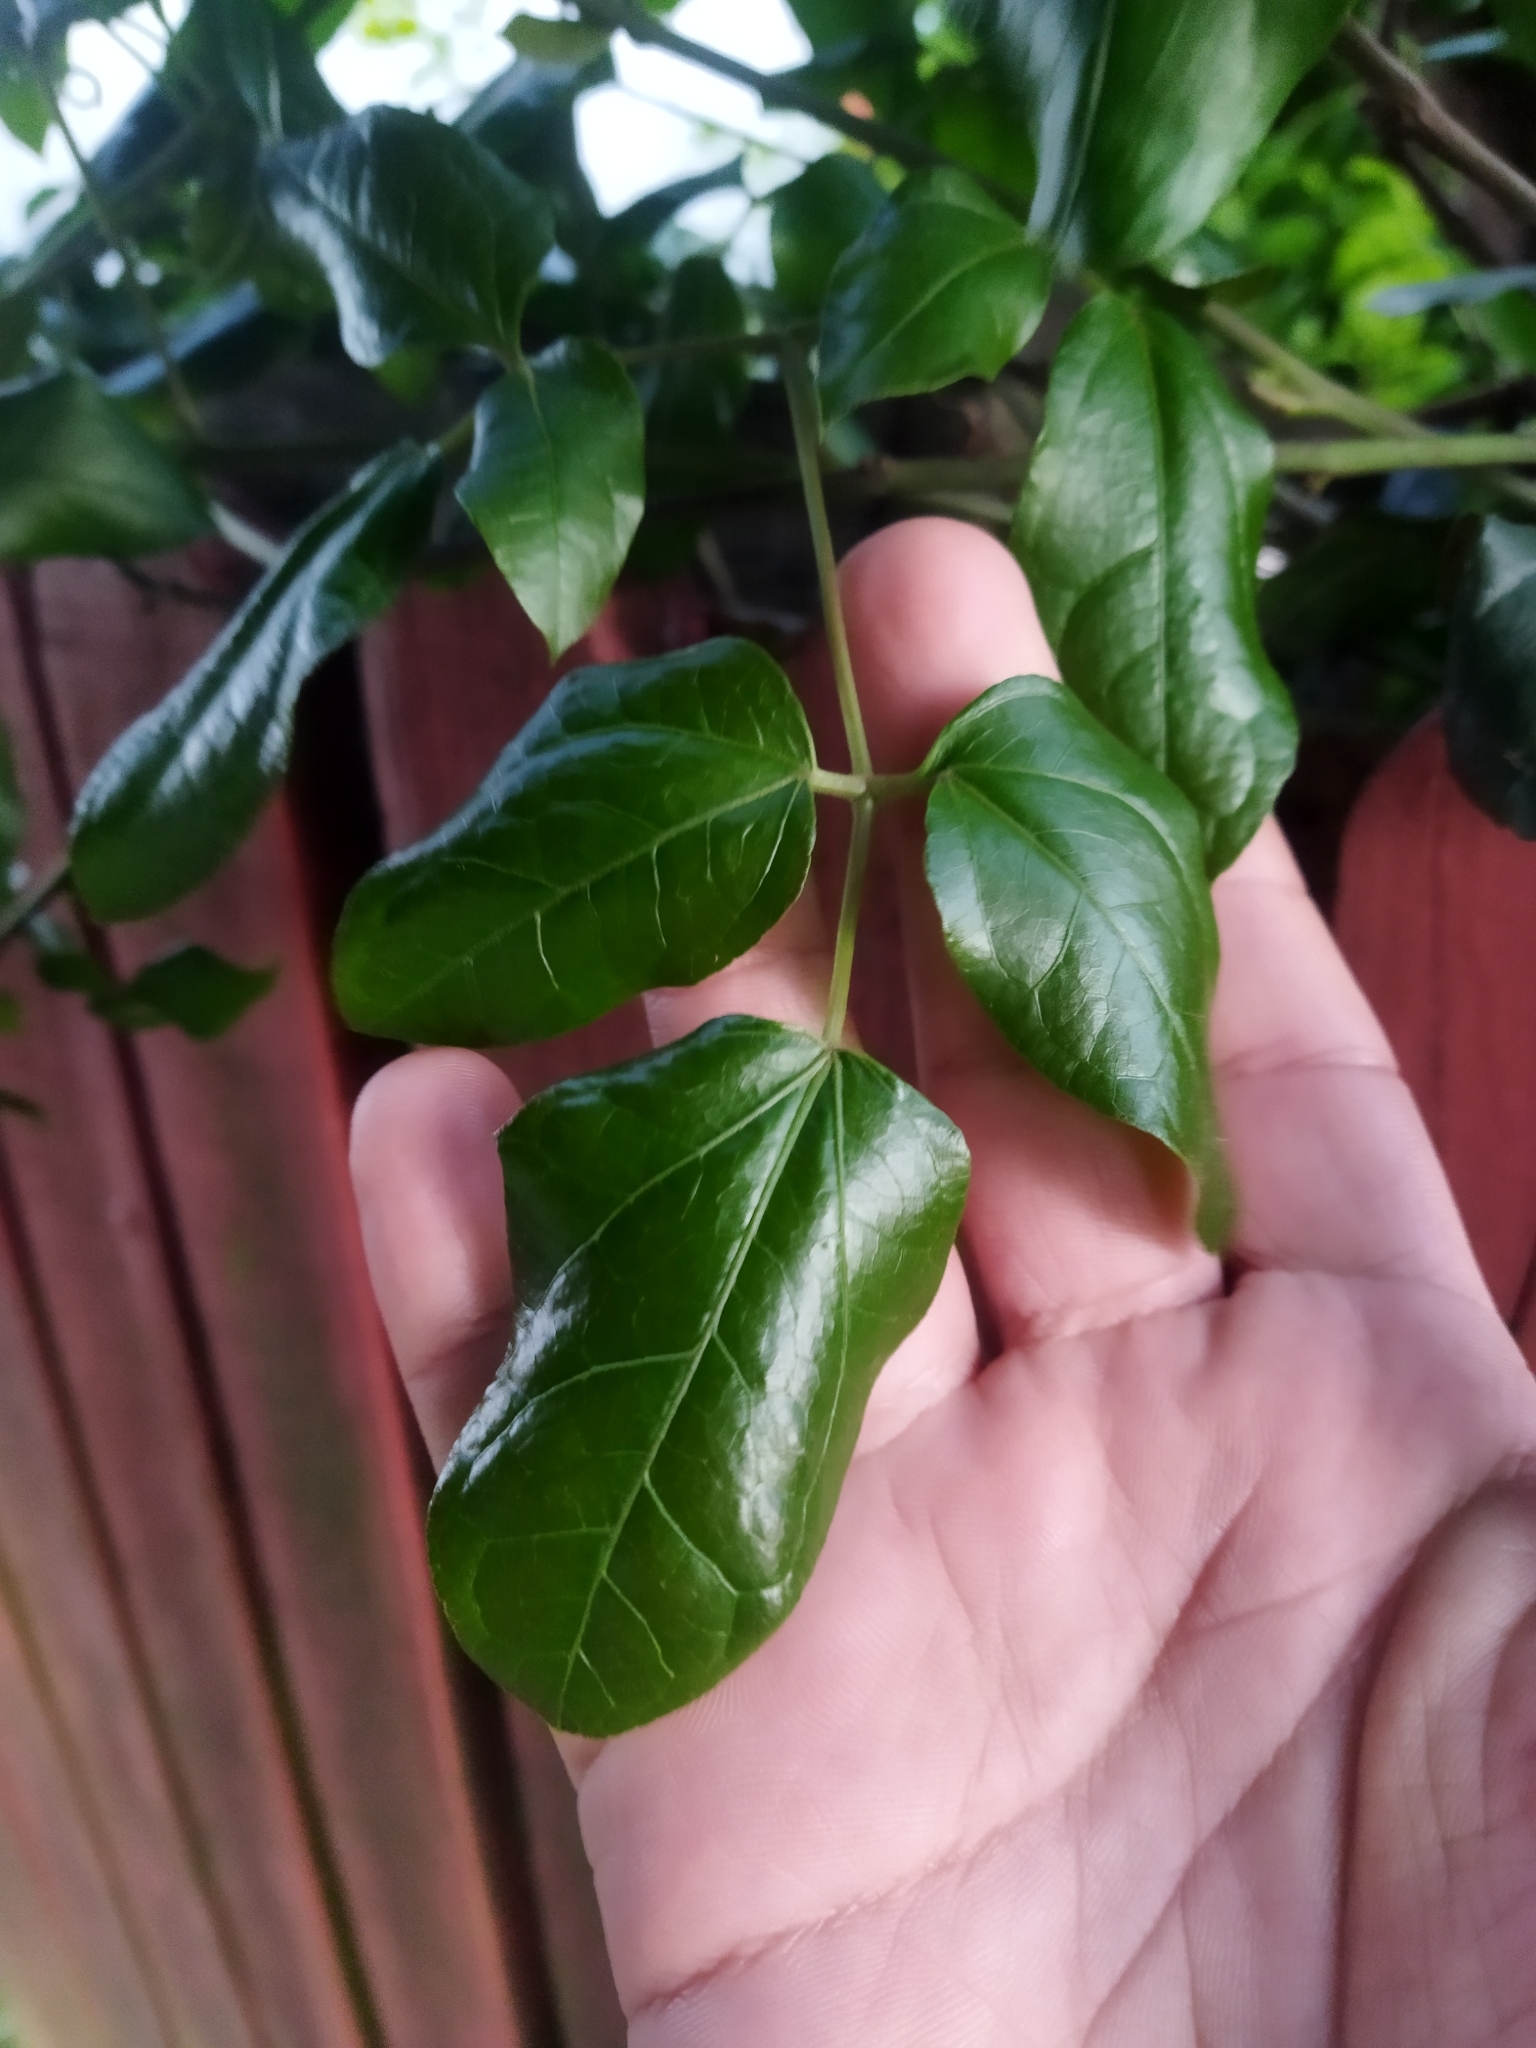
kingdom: Plantae
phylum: Tracheophyta
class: Magnoliopsida
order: Ranunculales
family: Lardizabalaceae
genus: Lardizabala
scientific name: Lardizabala funaria
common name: Zabala
